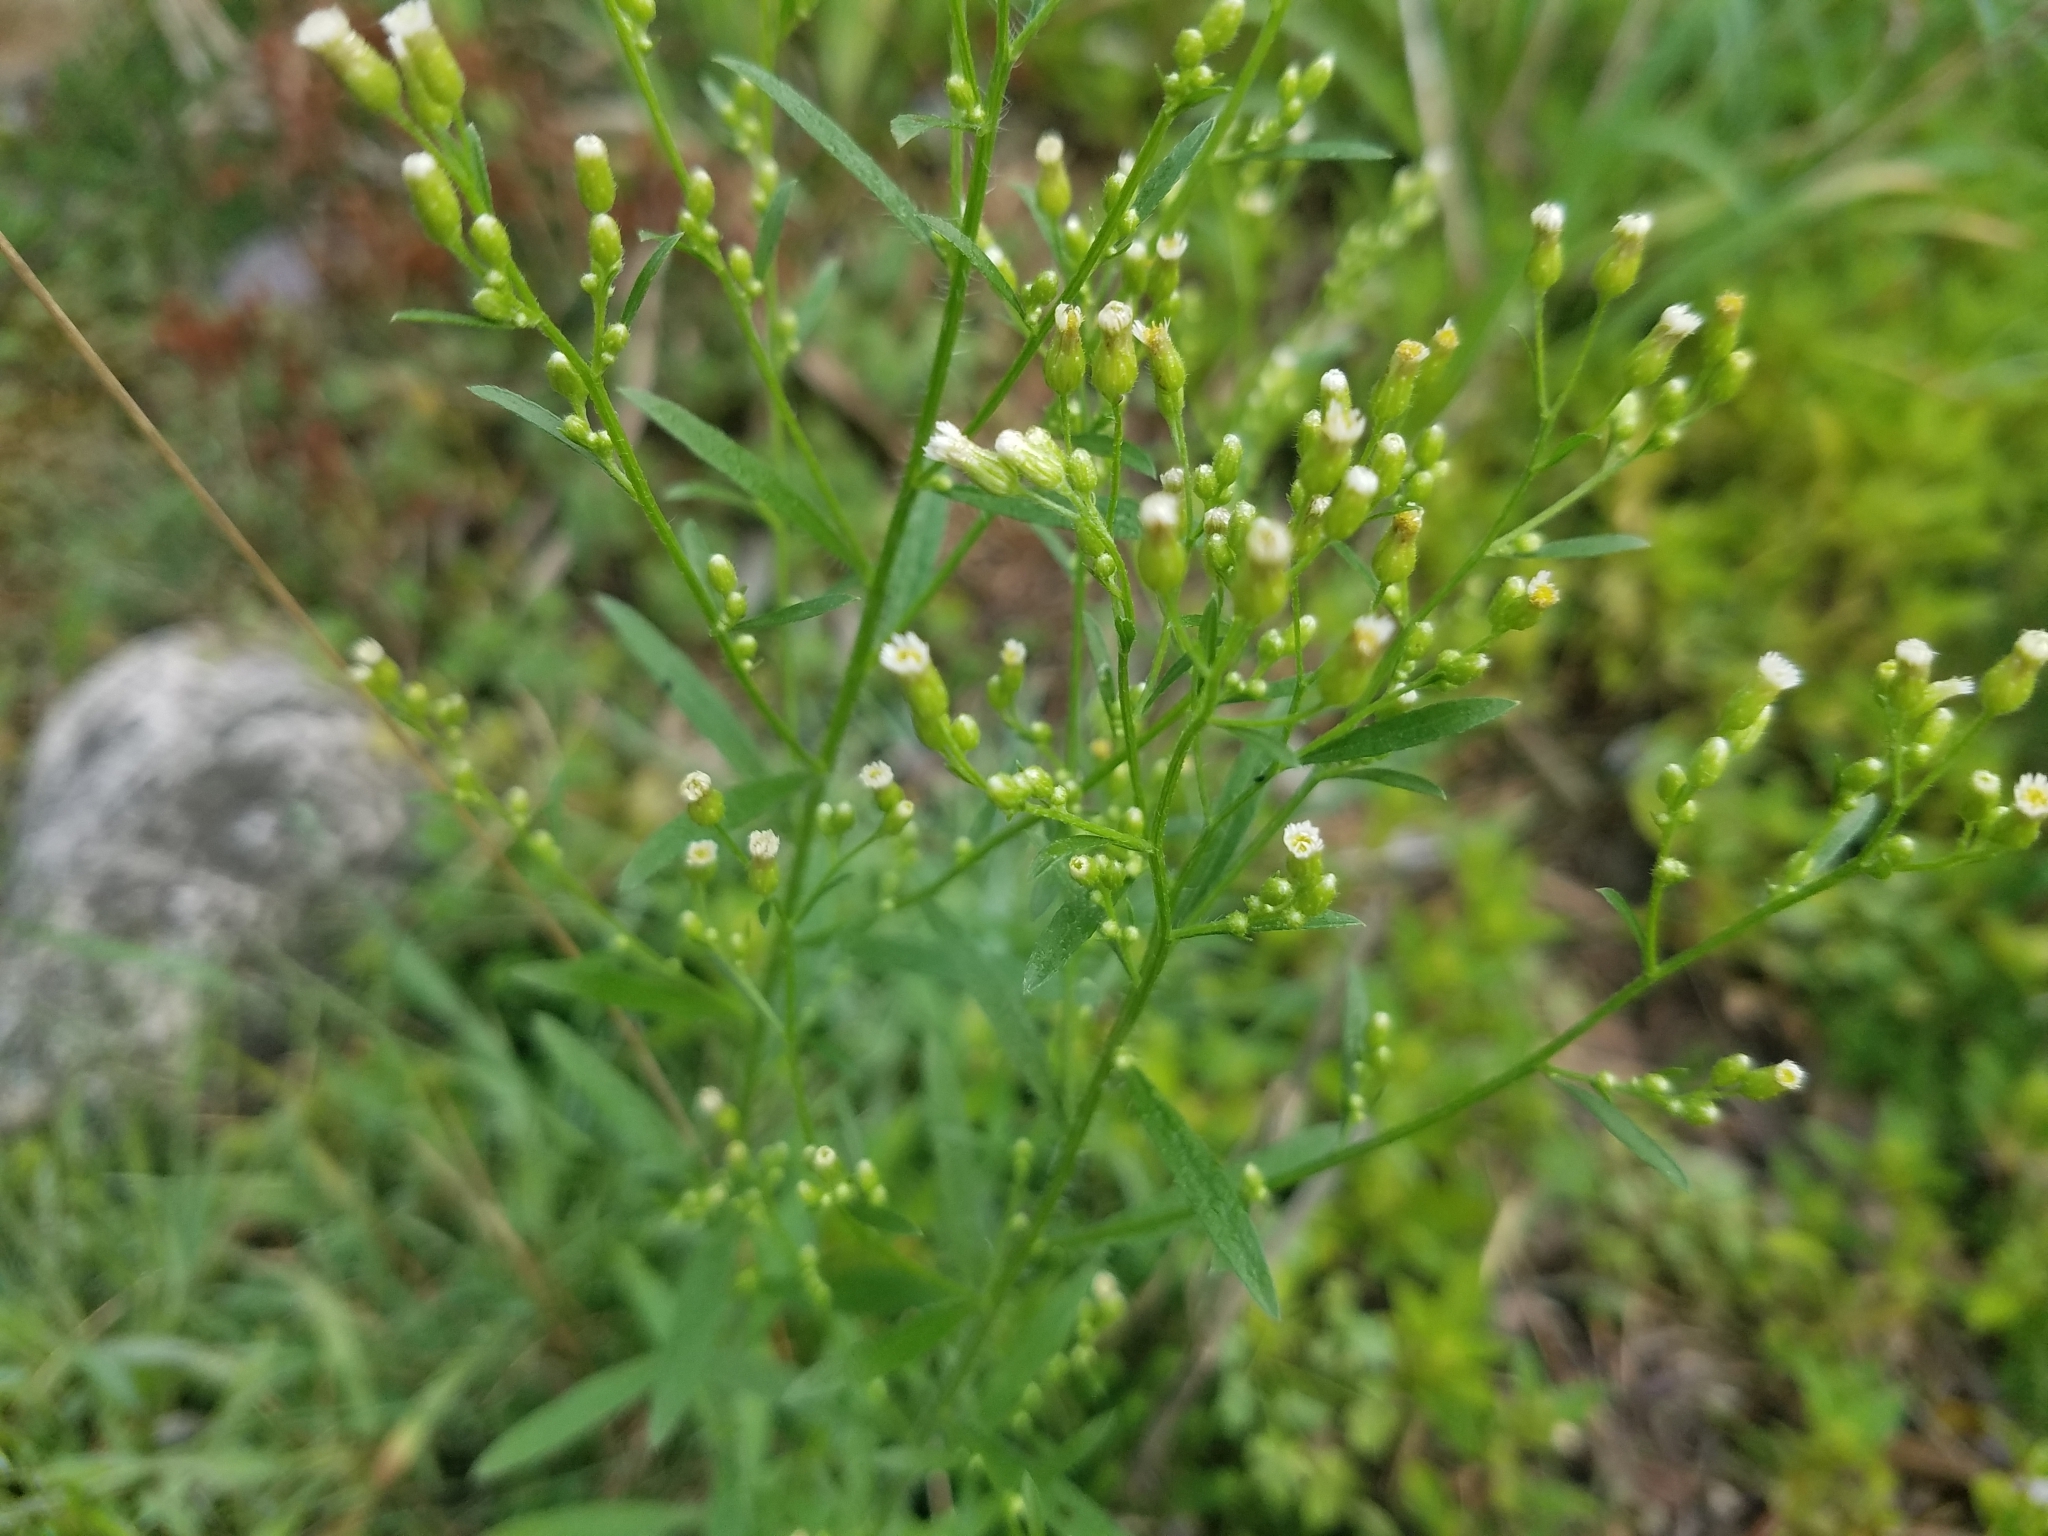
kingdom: Plantae
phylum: Tracheophyta
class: Magnoliopsida
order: Asterales
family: Asteraceae
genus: Erigeron
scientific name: Erigeron canadensis
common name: Canadian fleabane
